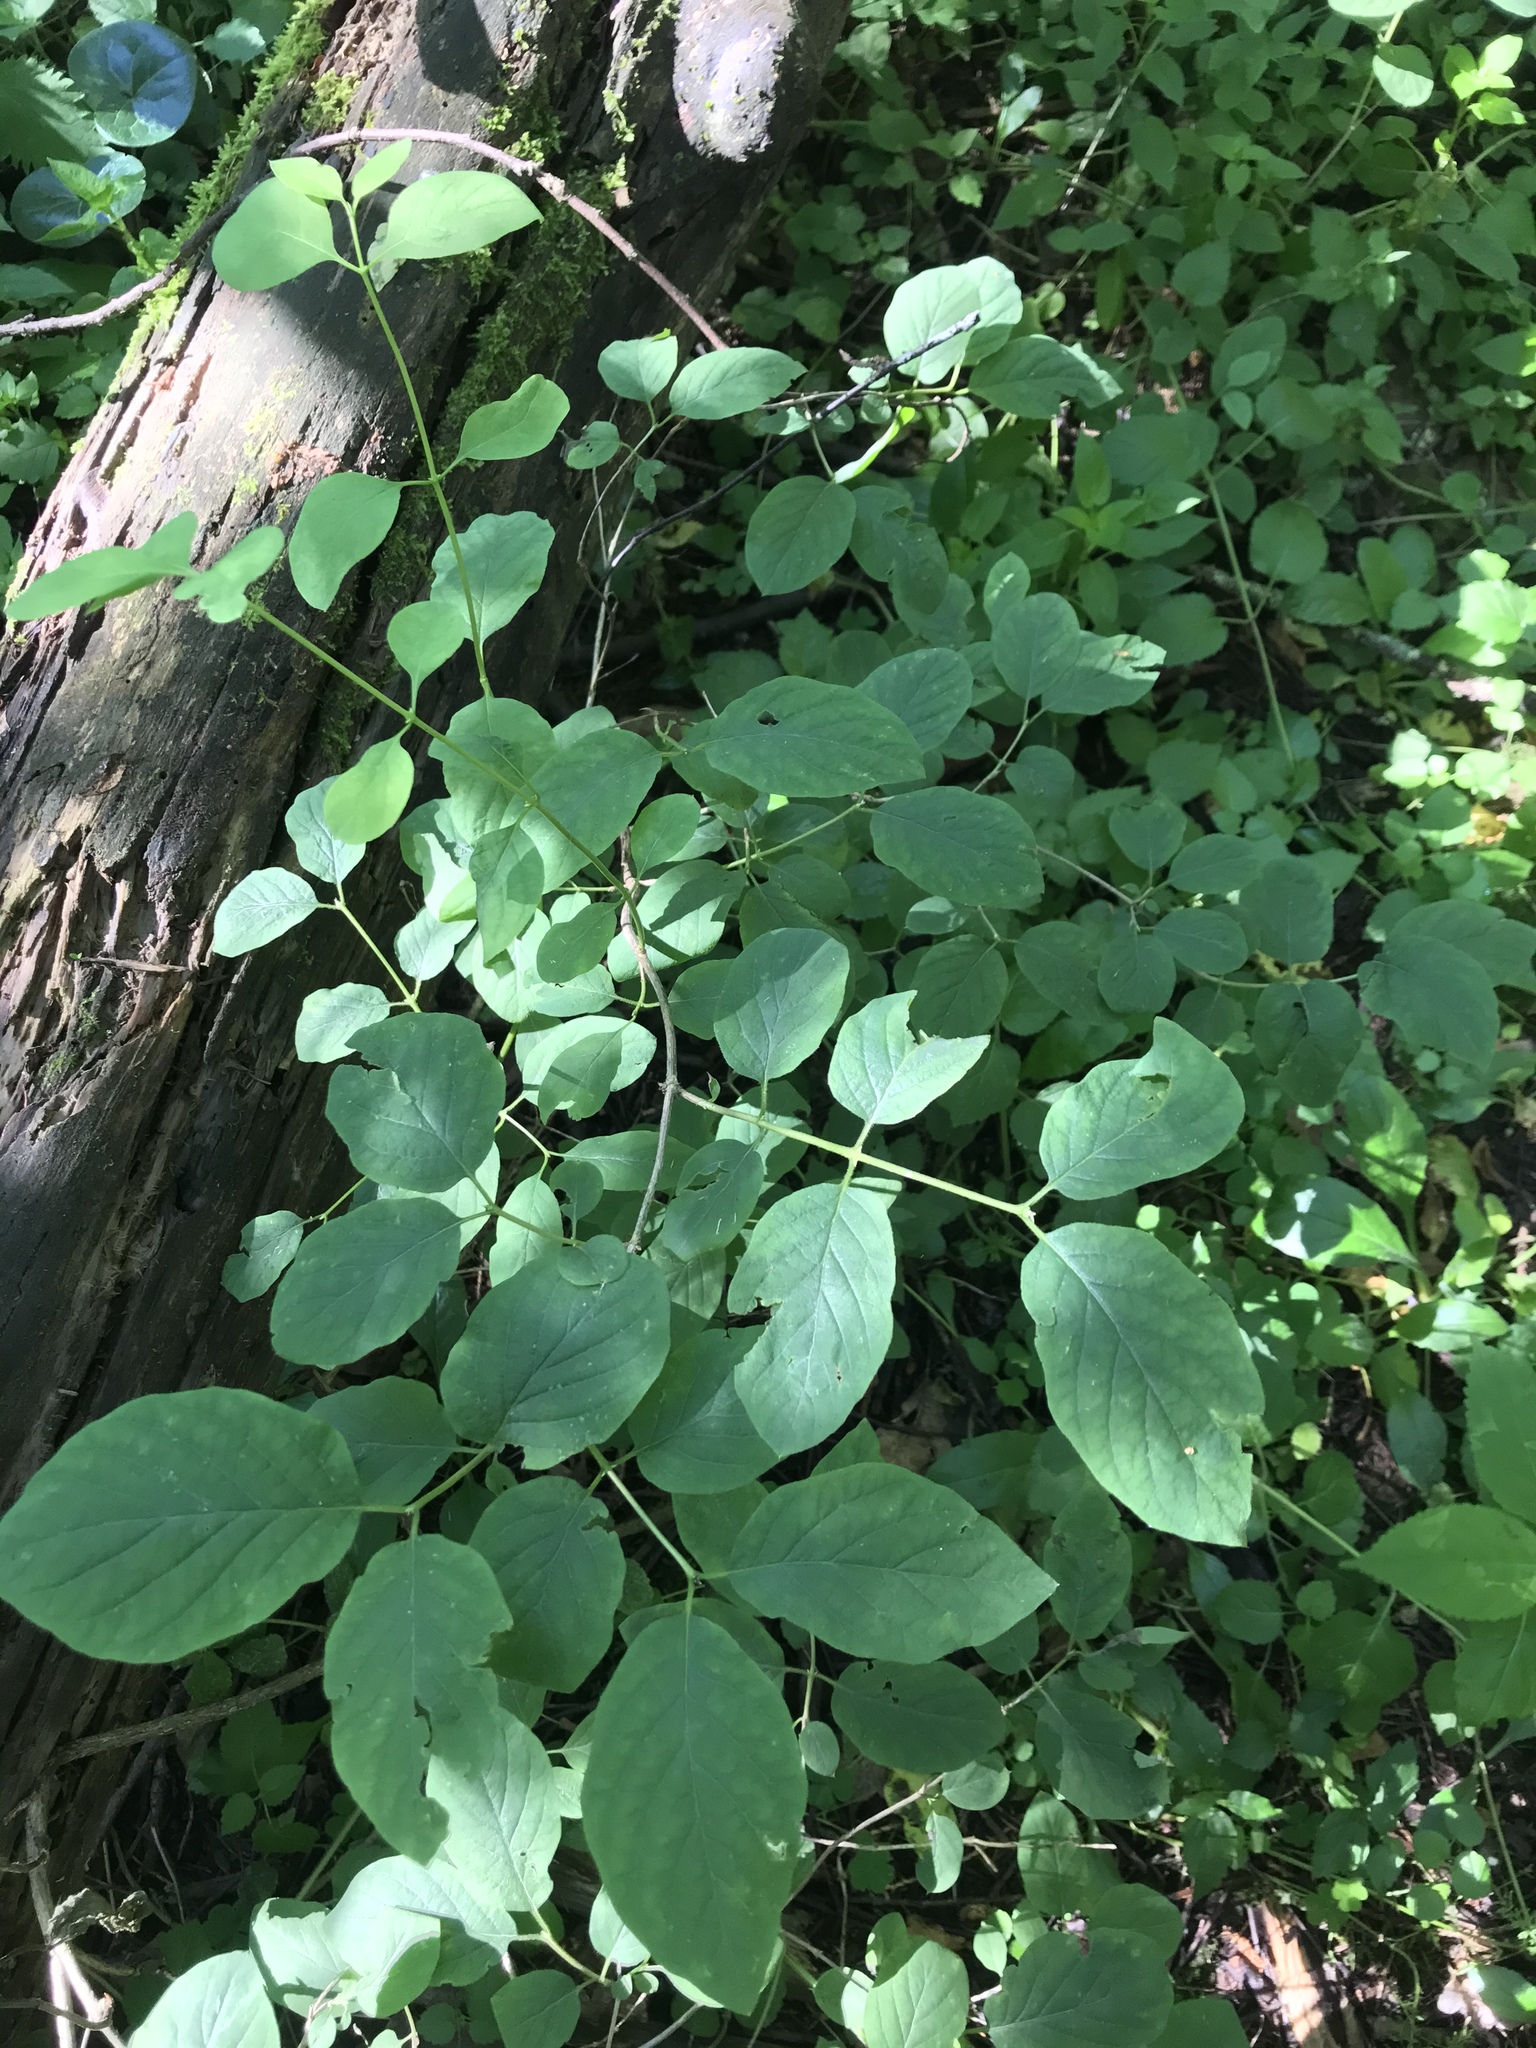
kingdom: Plantae
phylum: Tracheophyta
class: Magnoliopsida
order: Dipsacales
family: Caprifoliaceae
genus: Lonicera
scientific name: Lonicera xylosteum
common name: Fly honeysuckle
